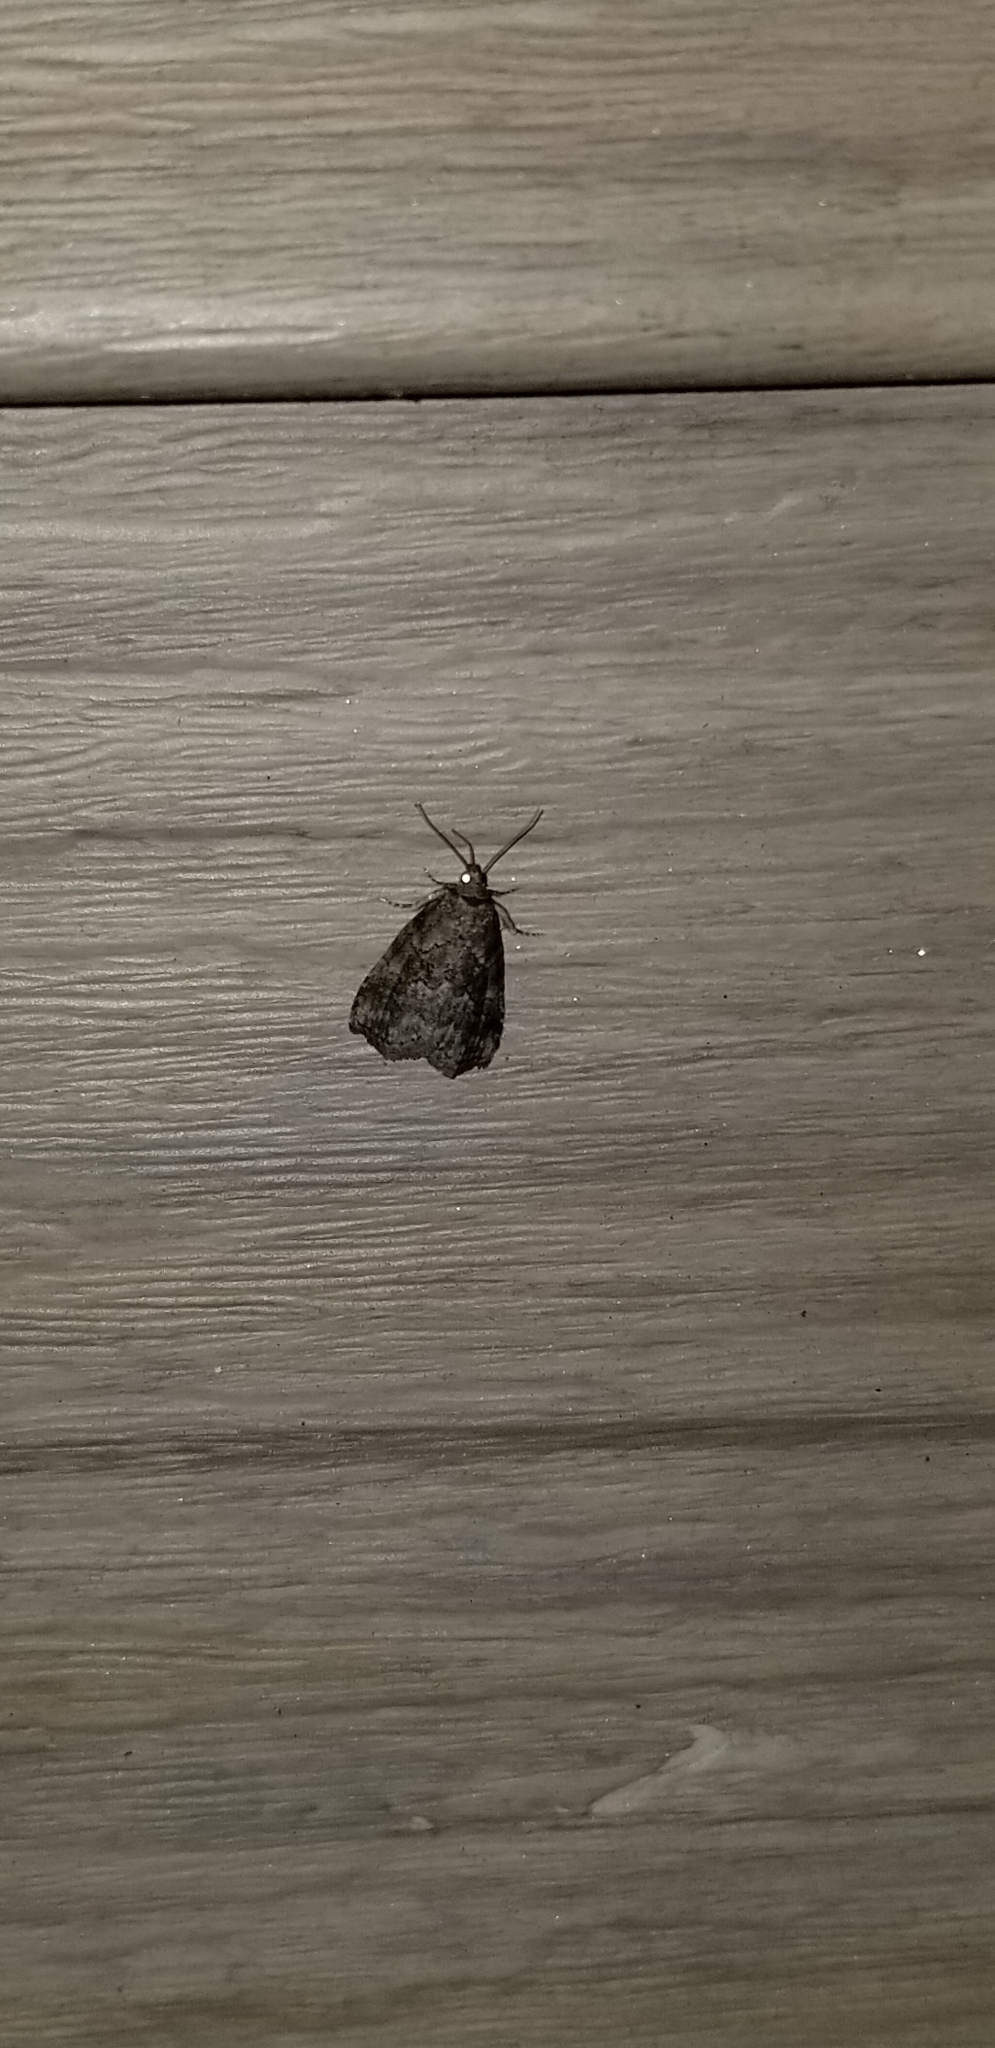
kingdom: Animalia
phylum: Arthropoda
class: Insecta
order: Lepidoptera
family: Erebidae
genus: Hyperstrotia
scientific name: Hyperstrotia nana
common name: White-lined graylet
